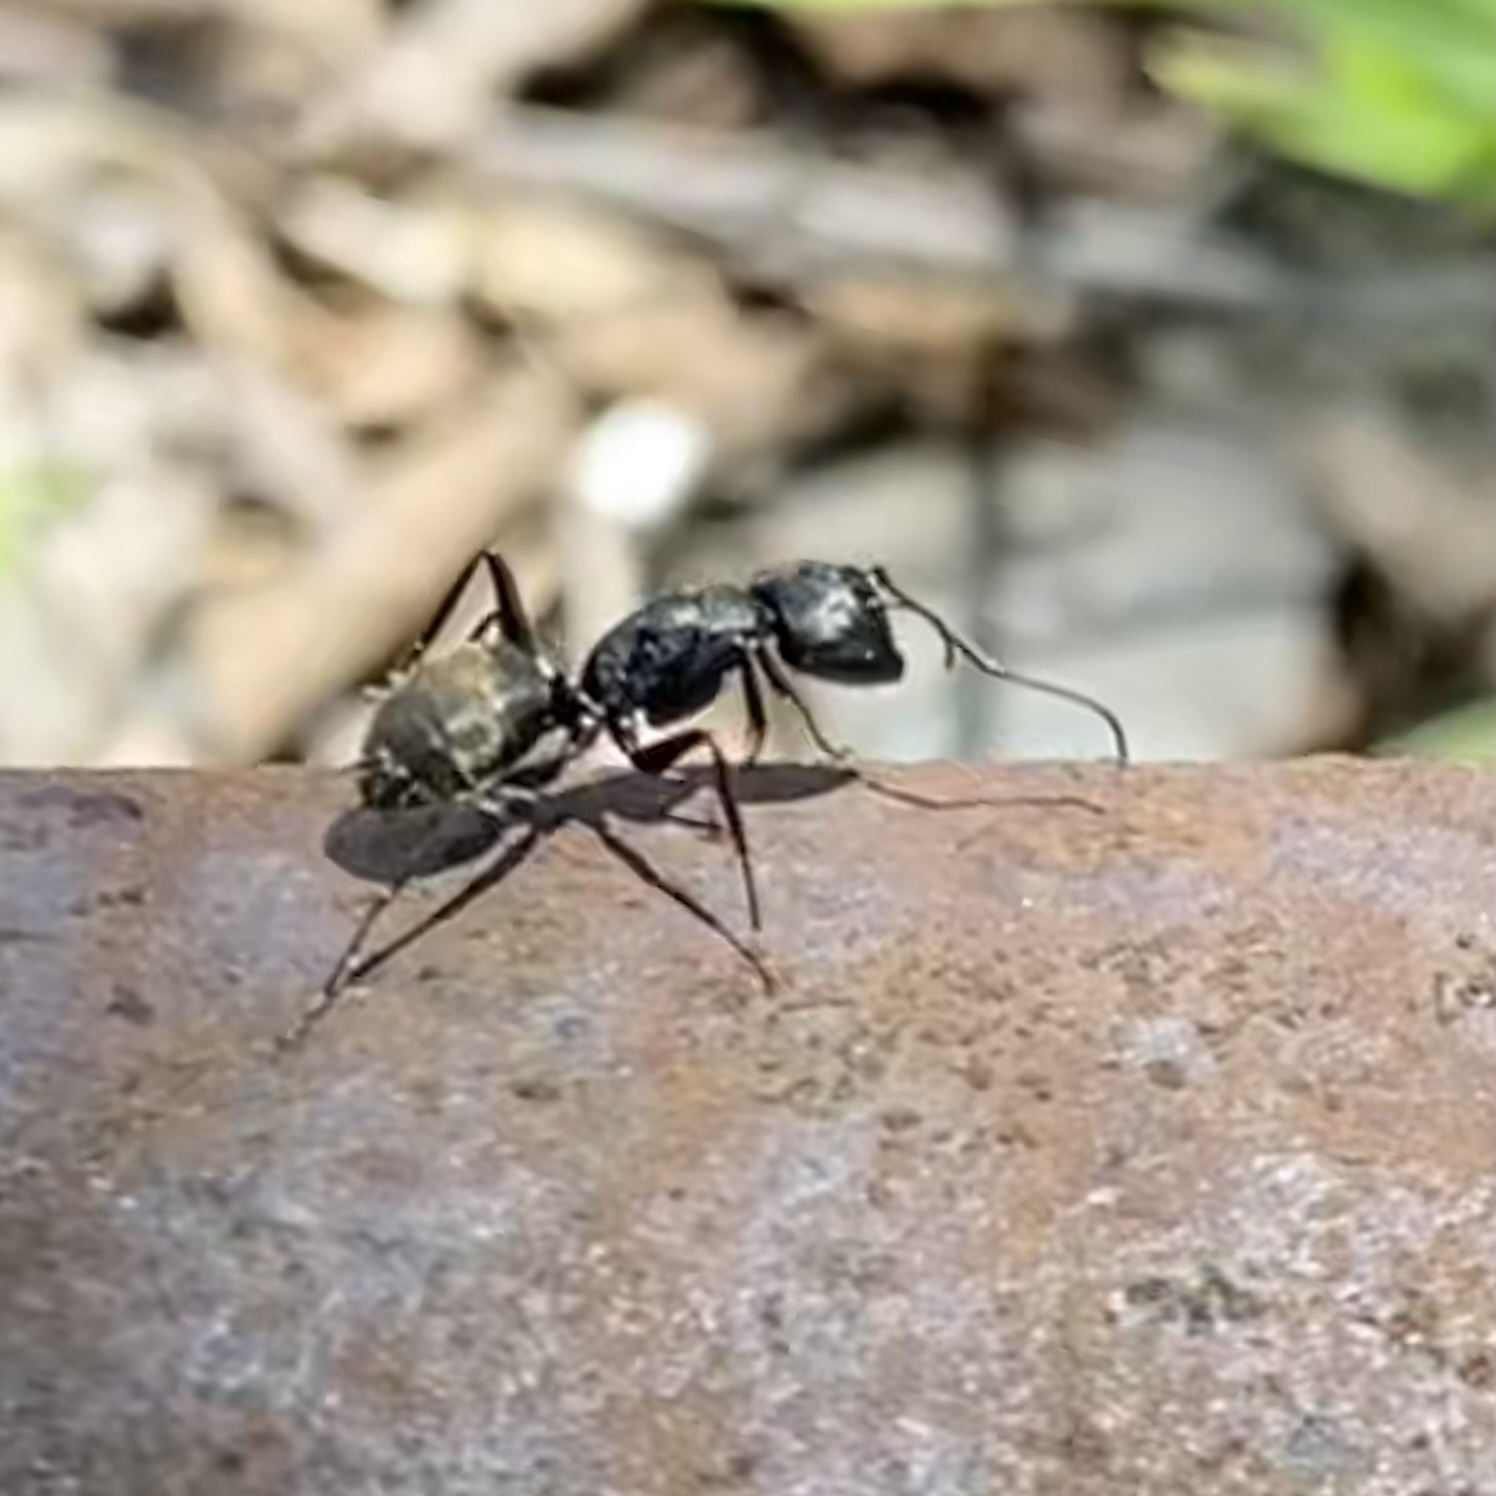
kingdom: Animalia
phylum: Arthropoda
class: Insecta
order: Hymenoptera
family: Formicidae
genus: Camponotus
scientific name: Camponotus pennsylvanicus
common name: Black carpenter ant
